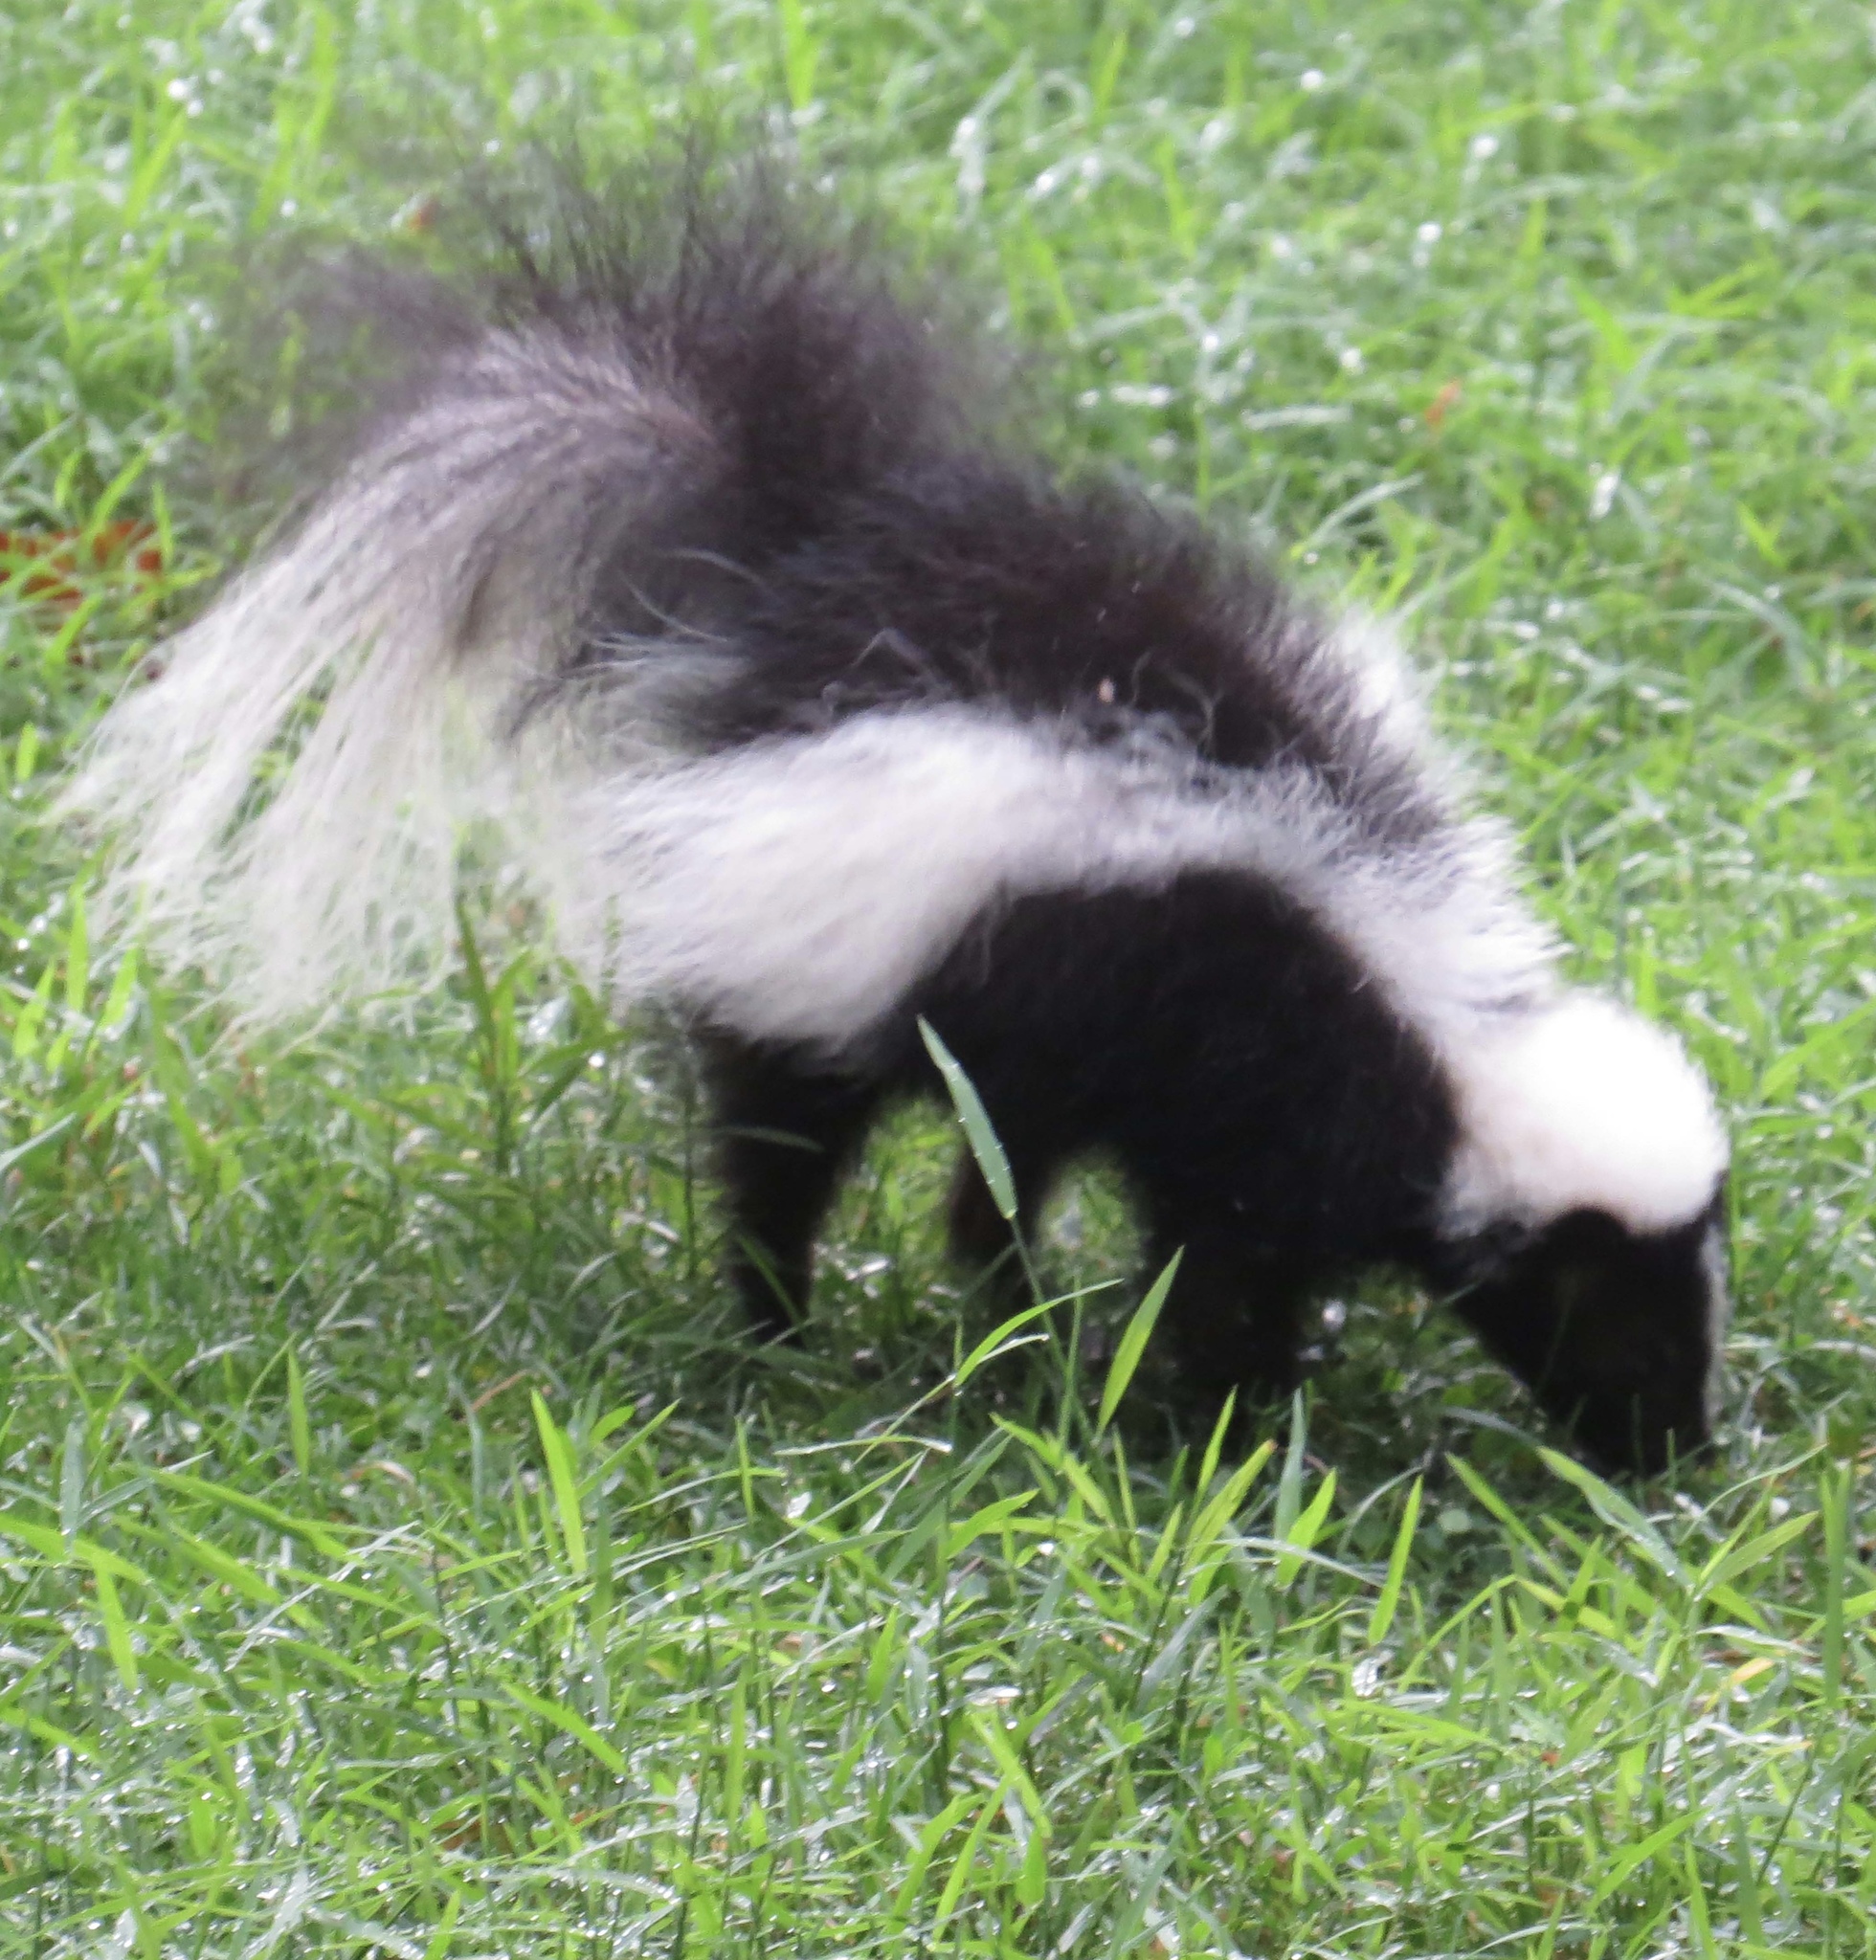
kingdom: Animalia
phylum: Chordata
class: Mammalia
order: Carnivora
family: Mephitidae
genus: Mephitis
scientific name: Mephitis mephitis
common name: Striped skunk
